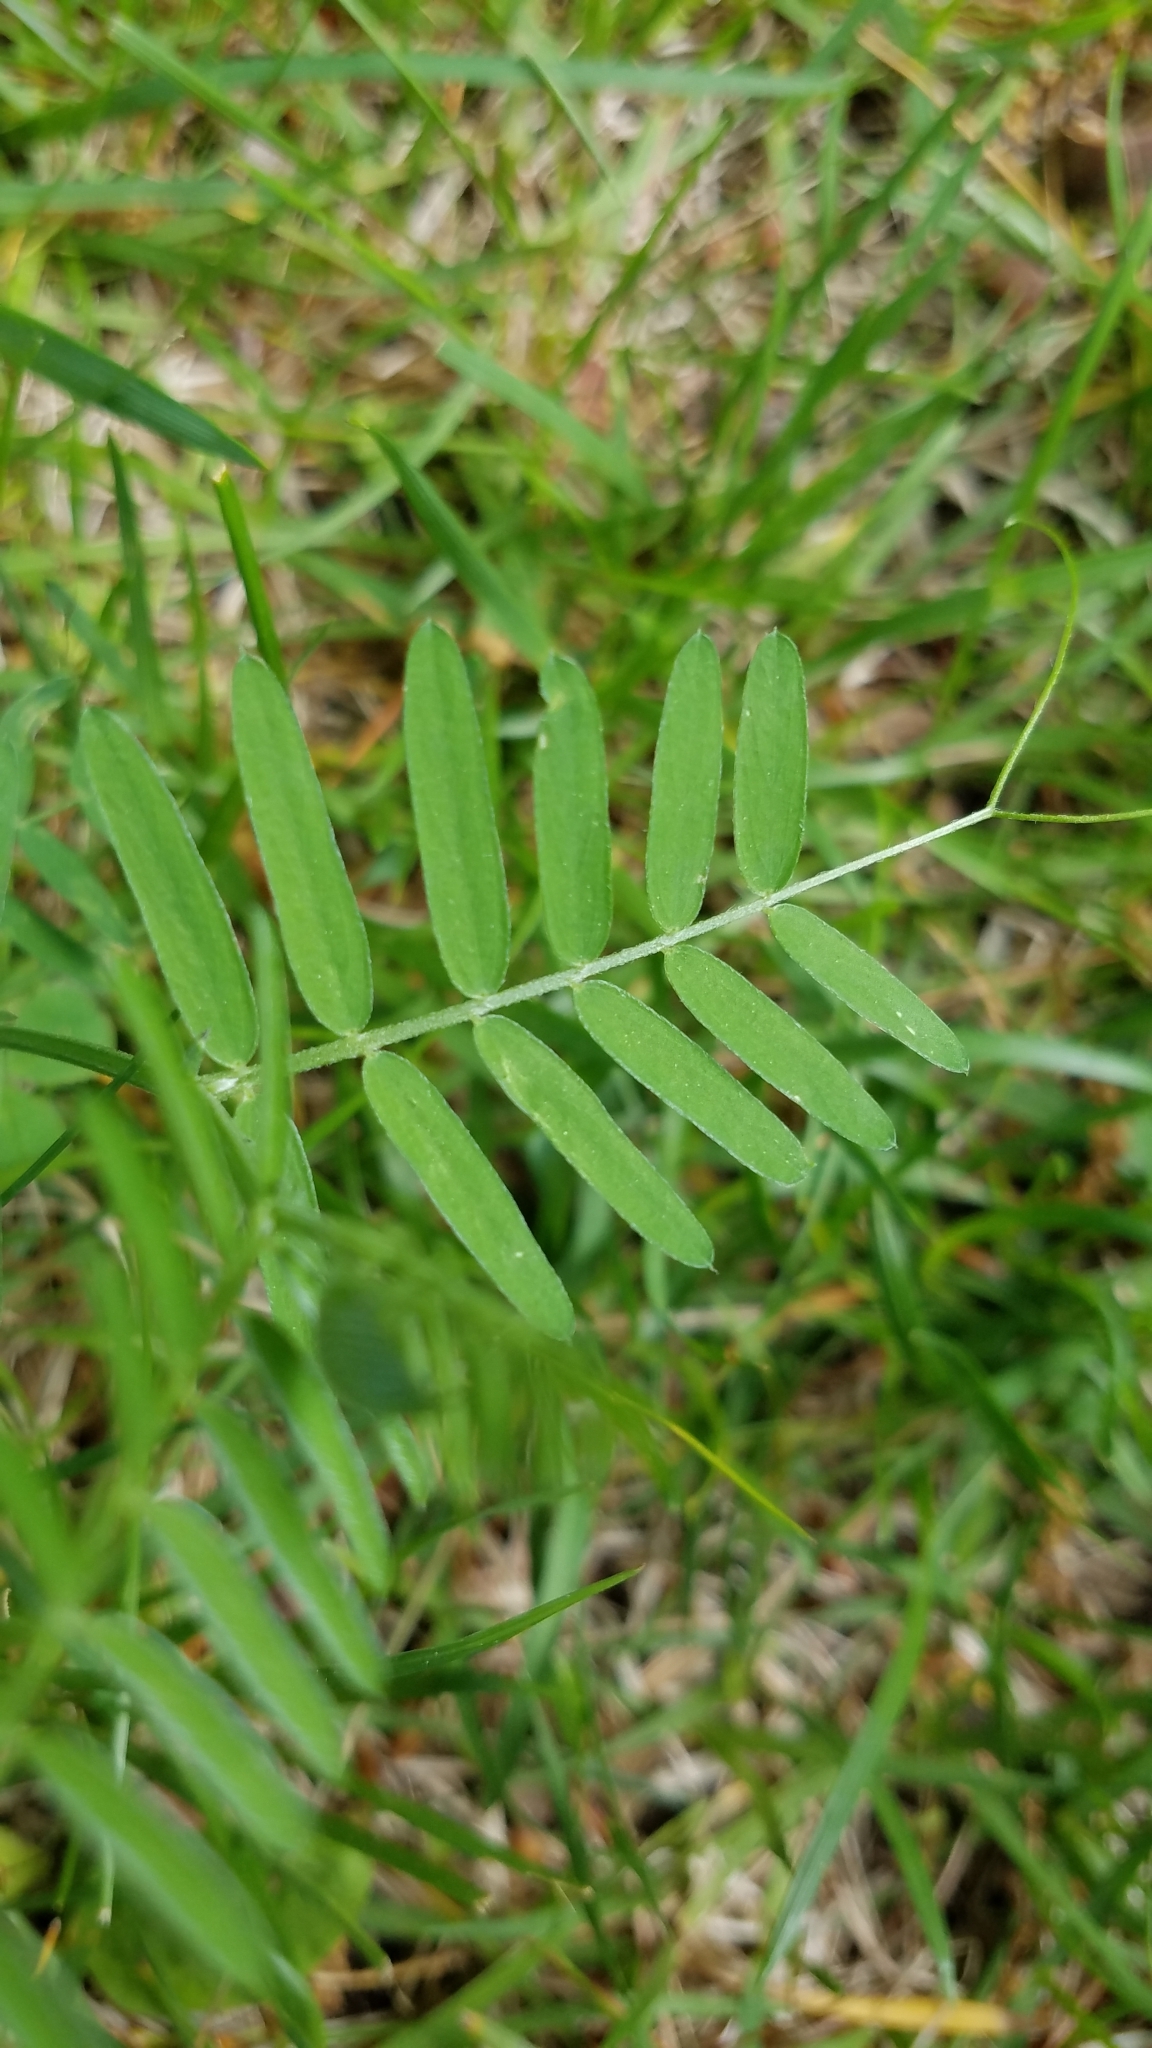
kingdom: Plantae
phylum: Tracheophyta
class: Magnoliopsida
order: Fabales
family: Fabaceae
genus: Vicia
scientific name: Vicia cracca
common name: Bird vetch
